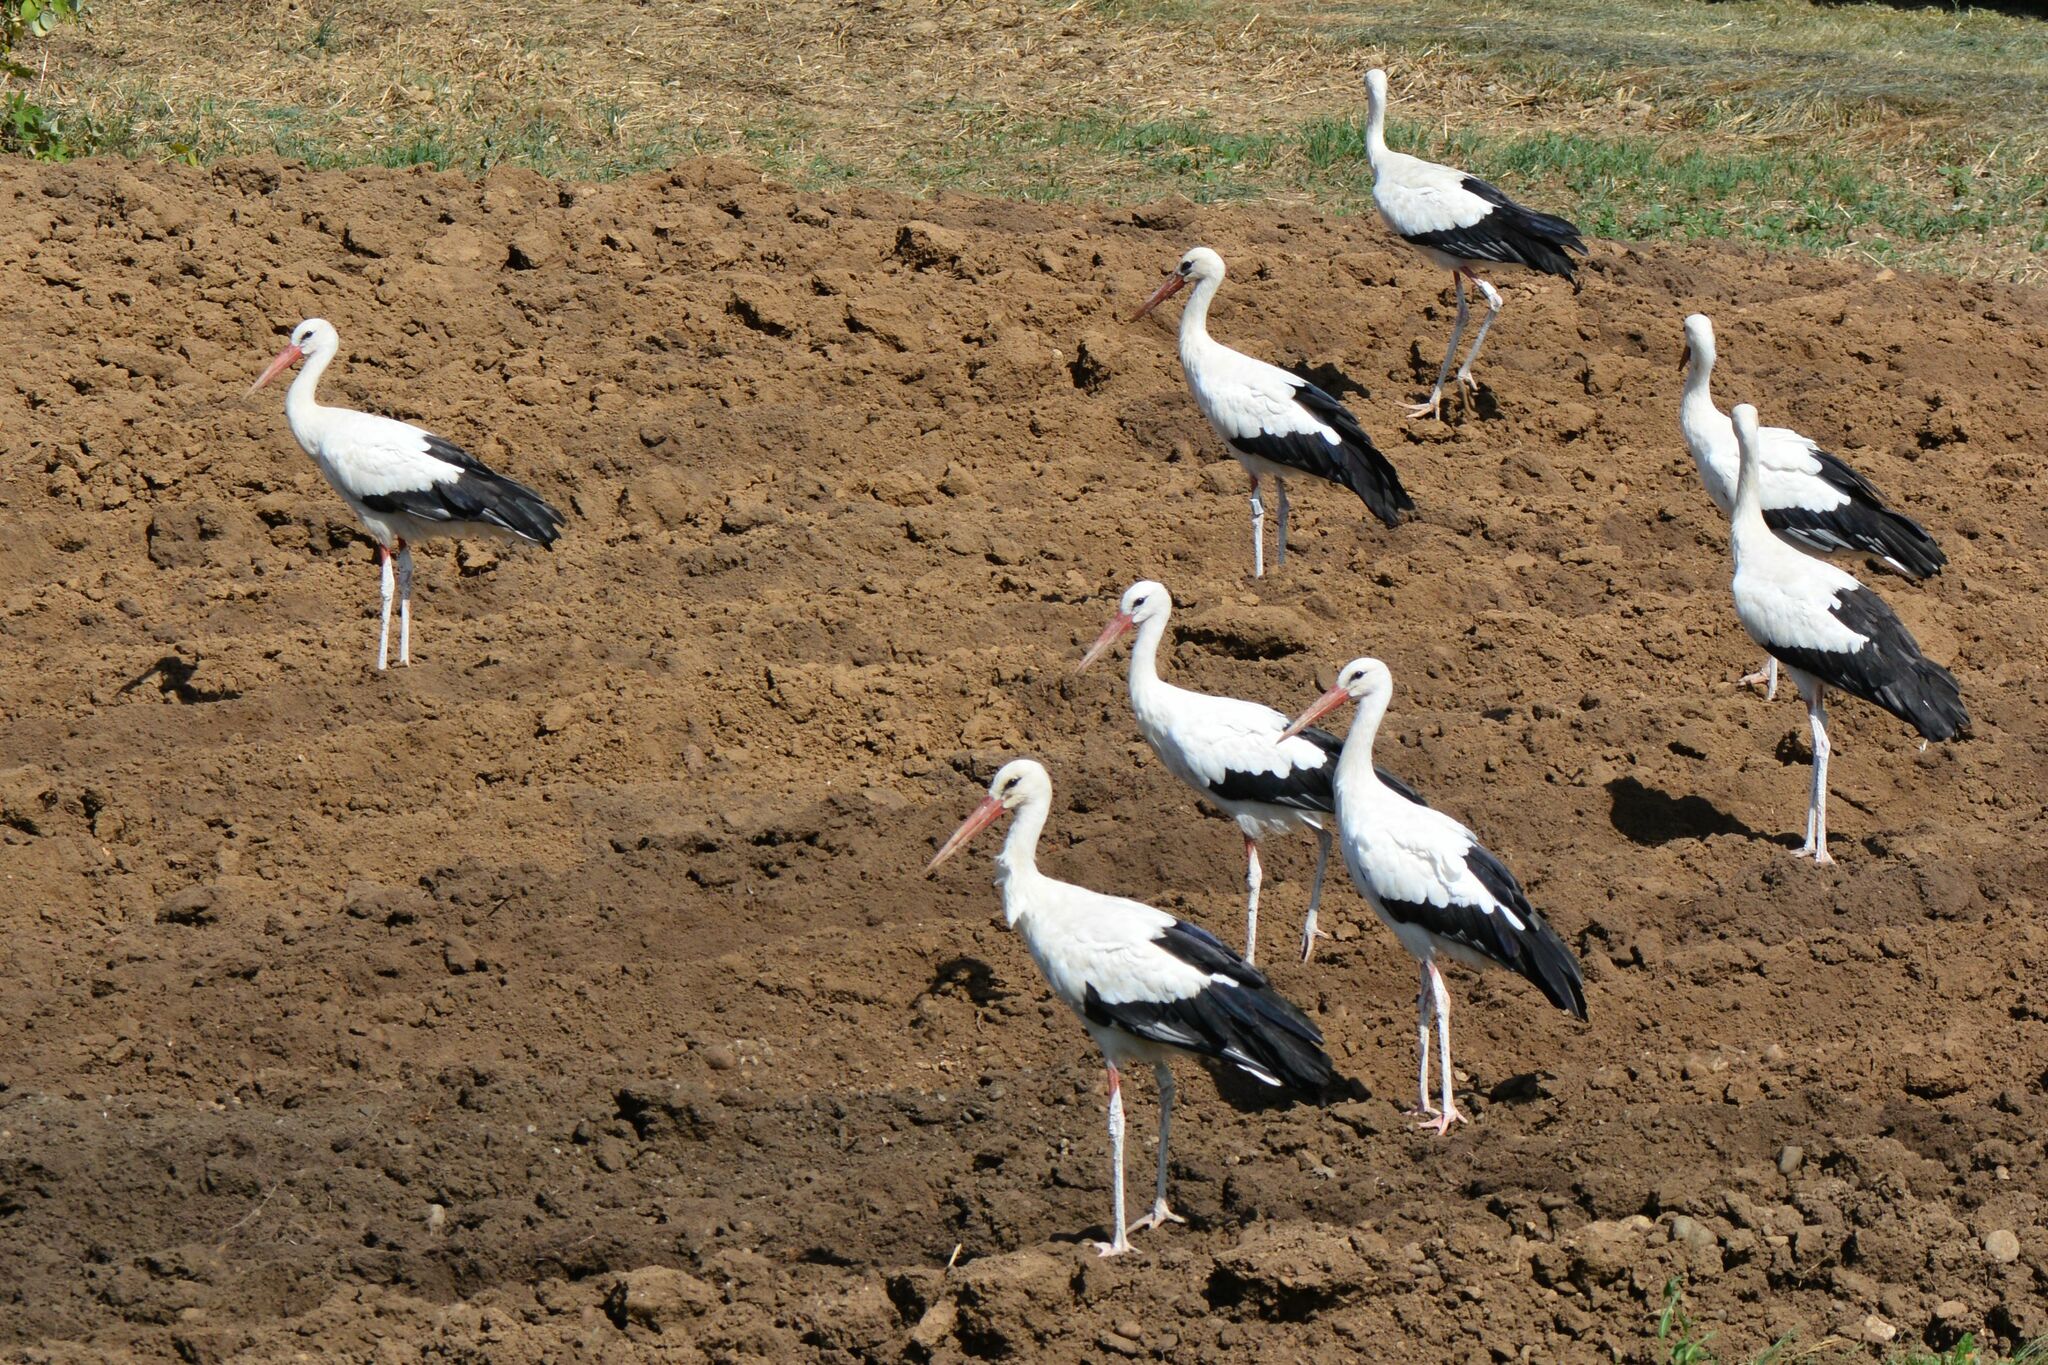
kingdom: Animalia
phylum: Chordata
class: Aves
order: Ciconiiformes
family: Ciconiidae
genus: Ciconia
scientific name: Ciconia ciconia
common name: White stork
